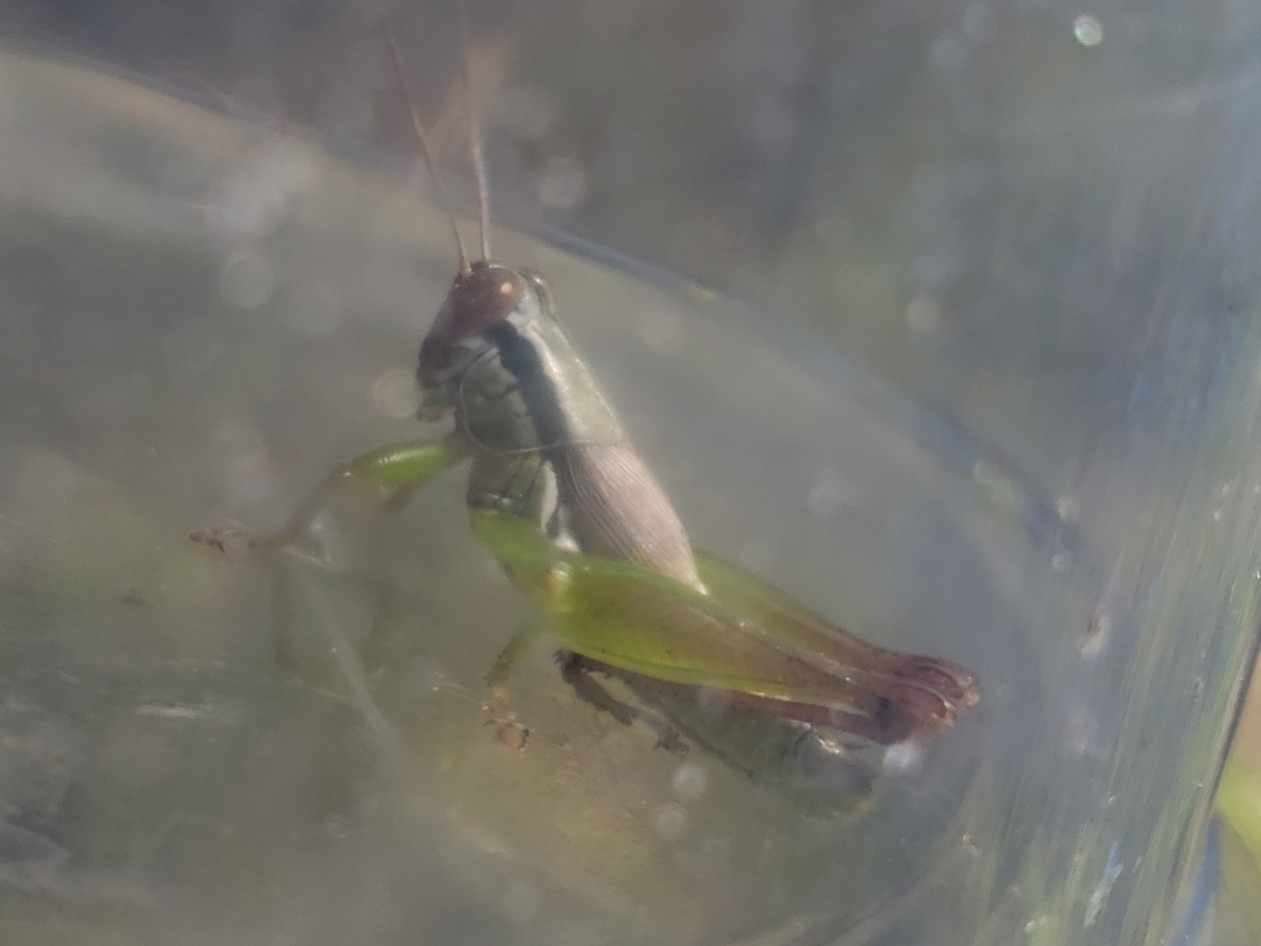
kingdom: Animalia
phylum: Arthropoda
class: Insecta
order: Orthoptera
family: Acrididae
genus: Eotettix
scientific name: Eotettix signatus
